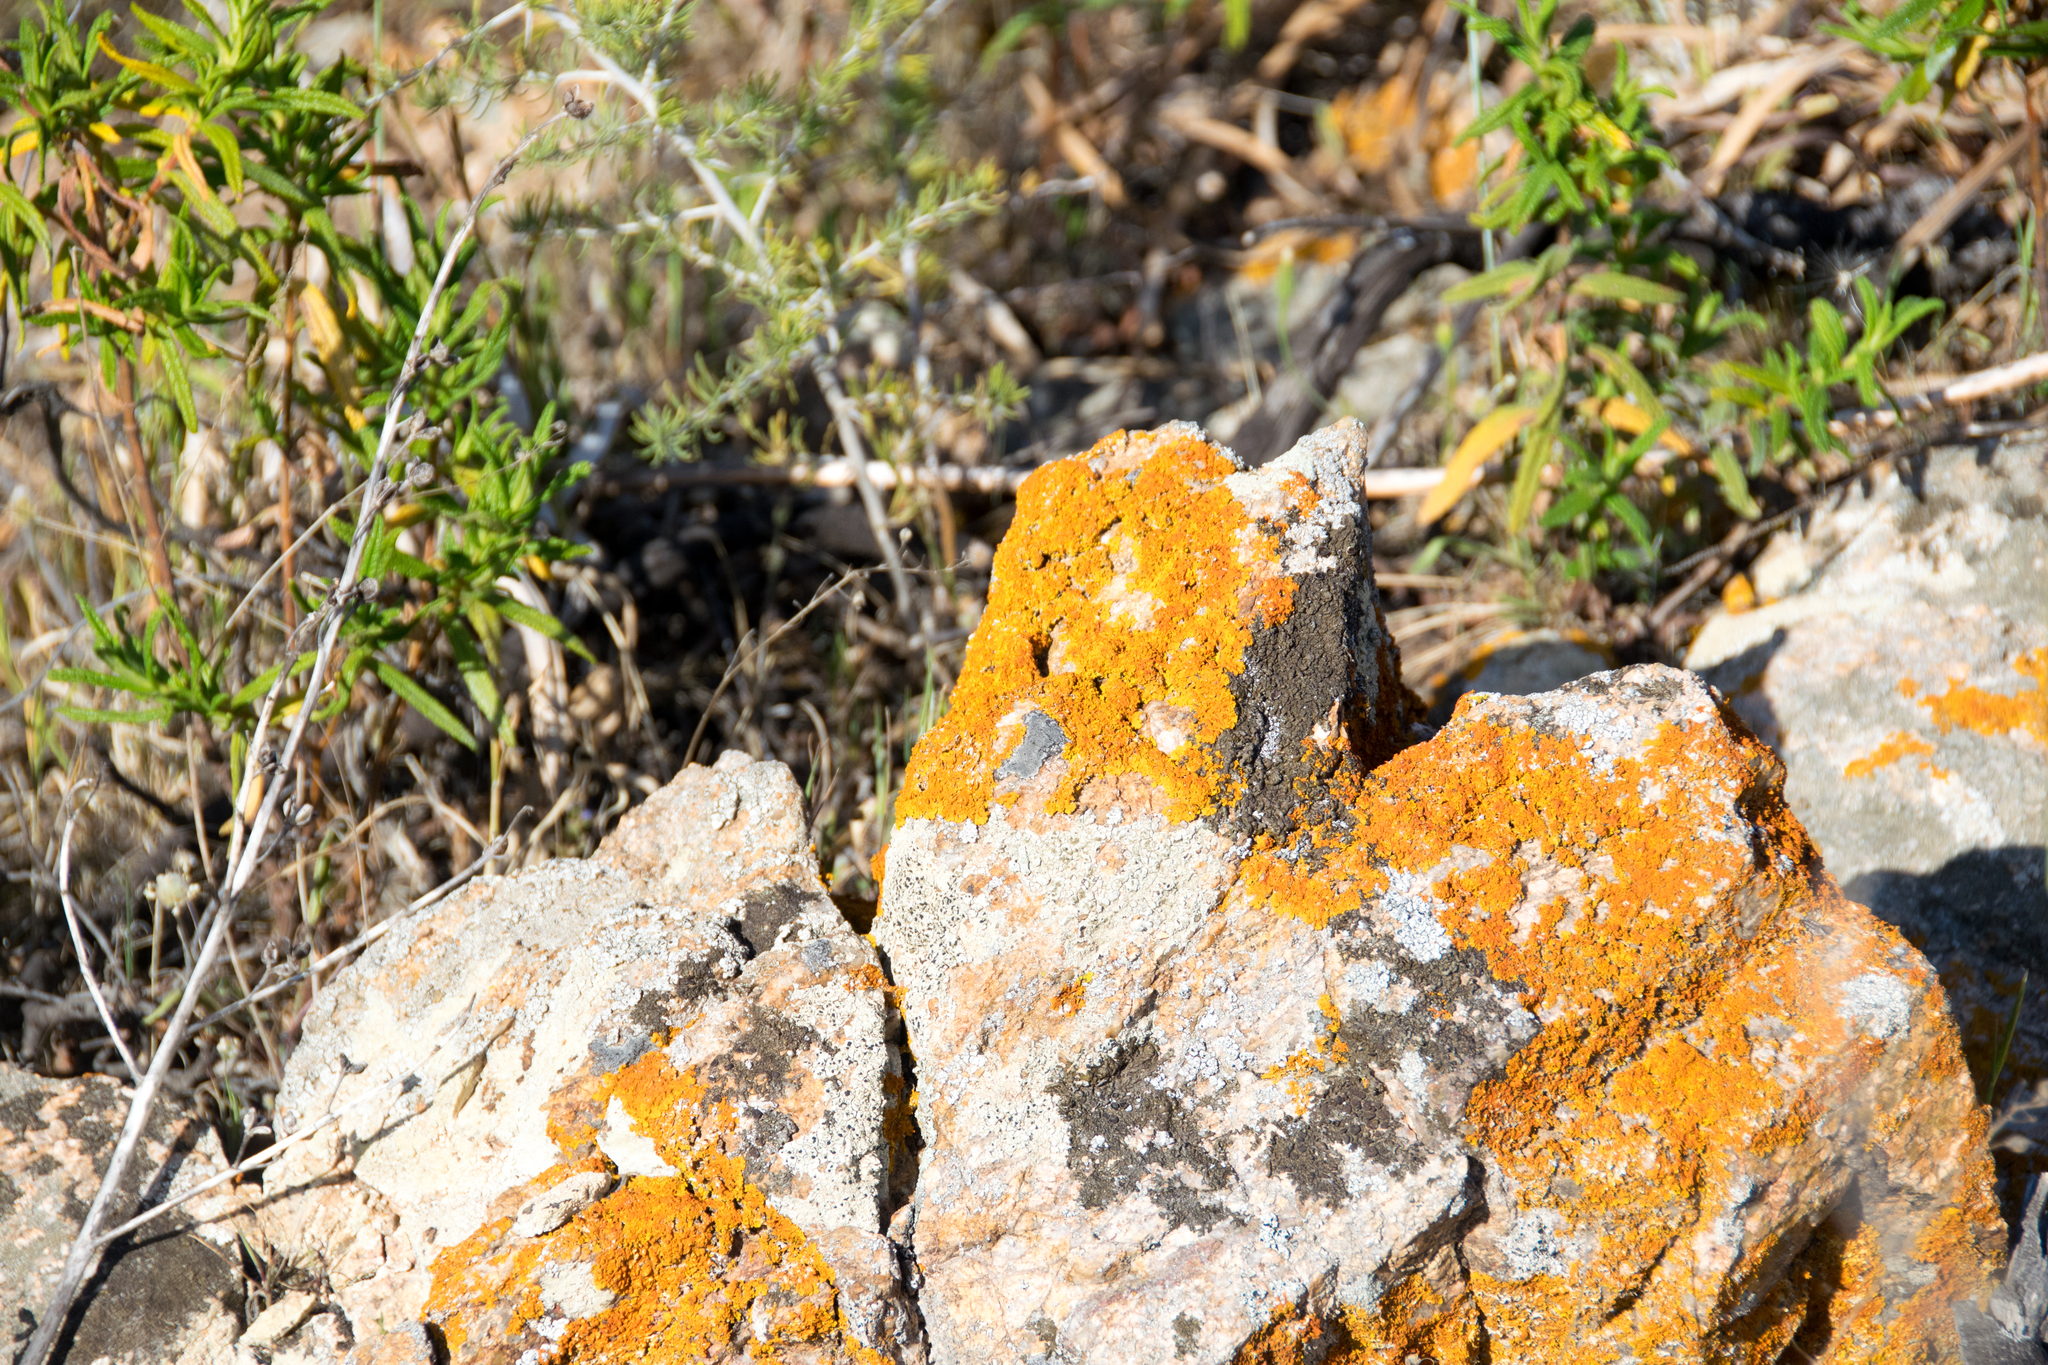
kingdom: Fungi
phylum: Ascomycota
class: Lecanoromycetes
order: Teloschistales
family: Teloschistaceae
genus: Xanthoria
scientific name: Xanthoria parietina
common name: Common orange lichen
